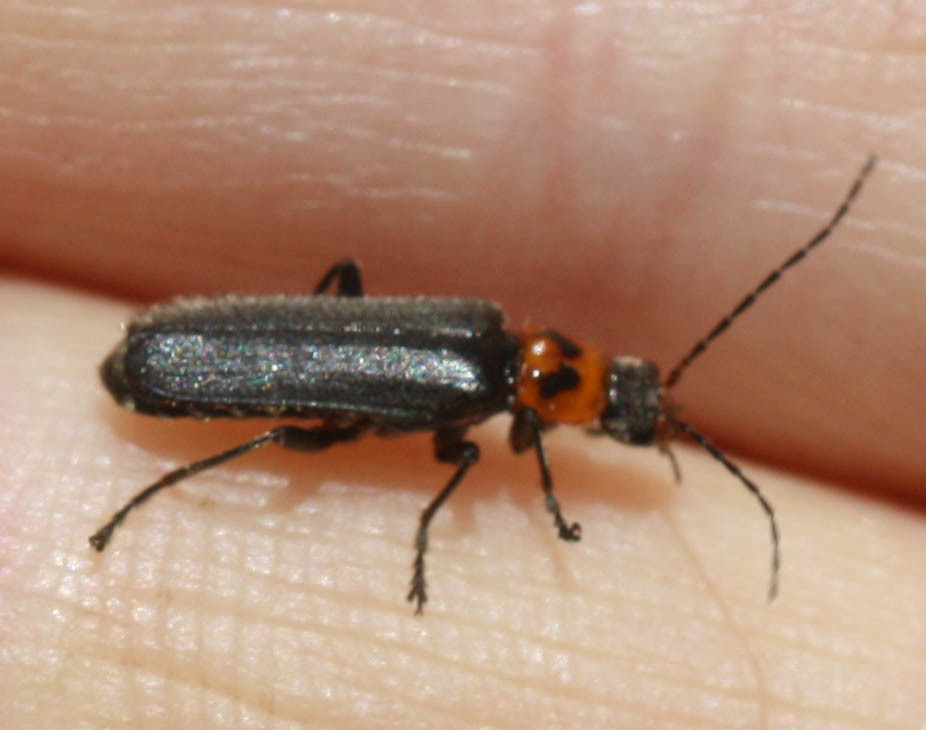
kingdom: Animalia
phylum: Arthropoda
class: Insecta
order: Coleoptera
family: Cantharidae
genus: Cyrtomoptera
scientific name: Cyrtomoptera divisa
